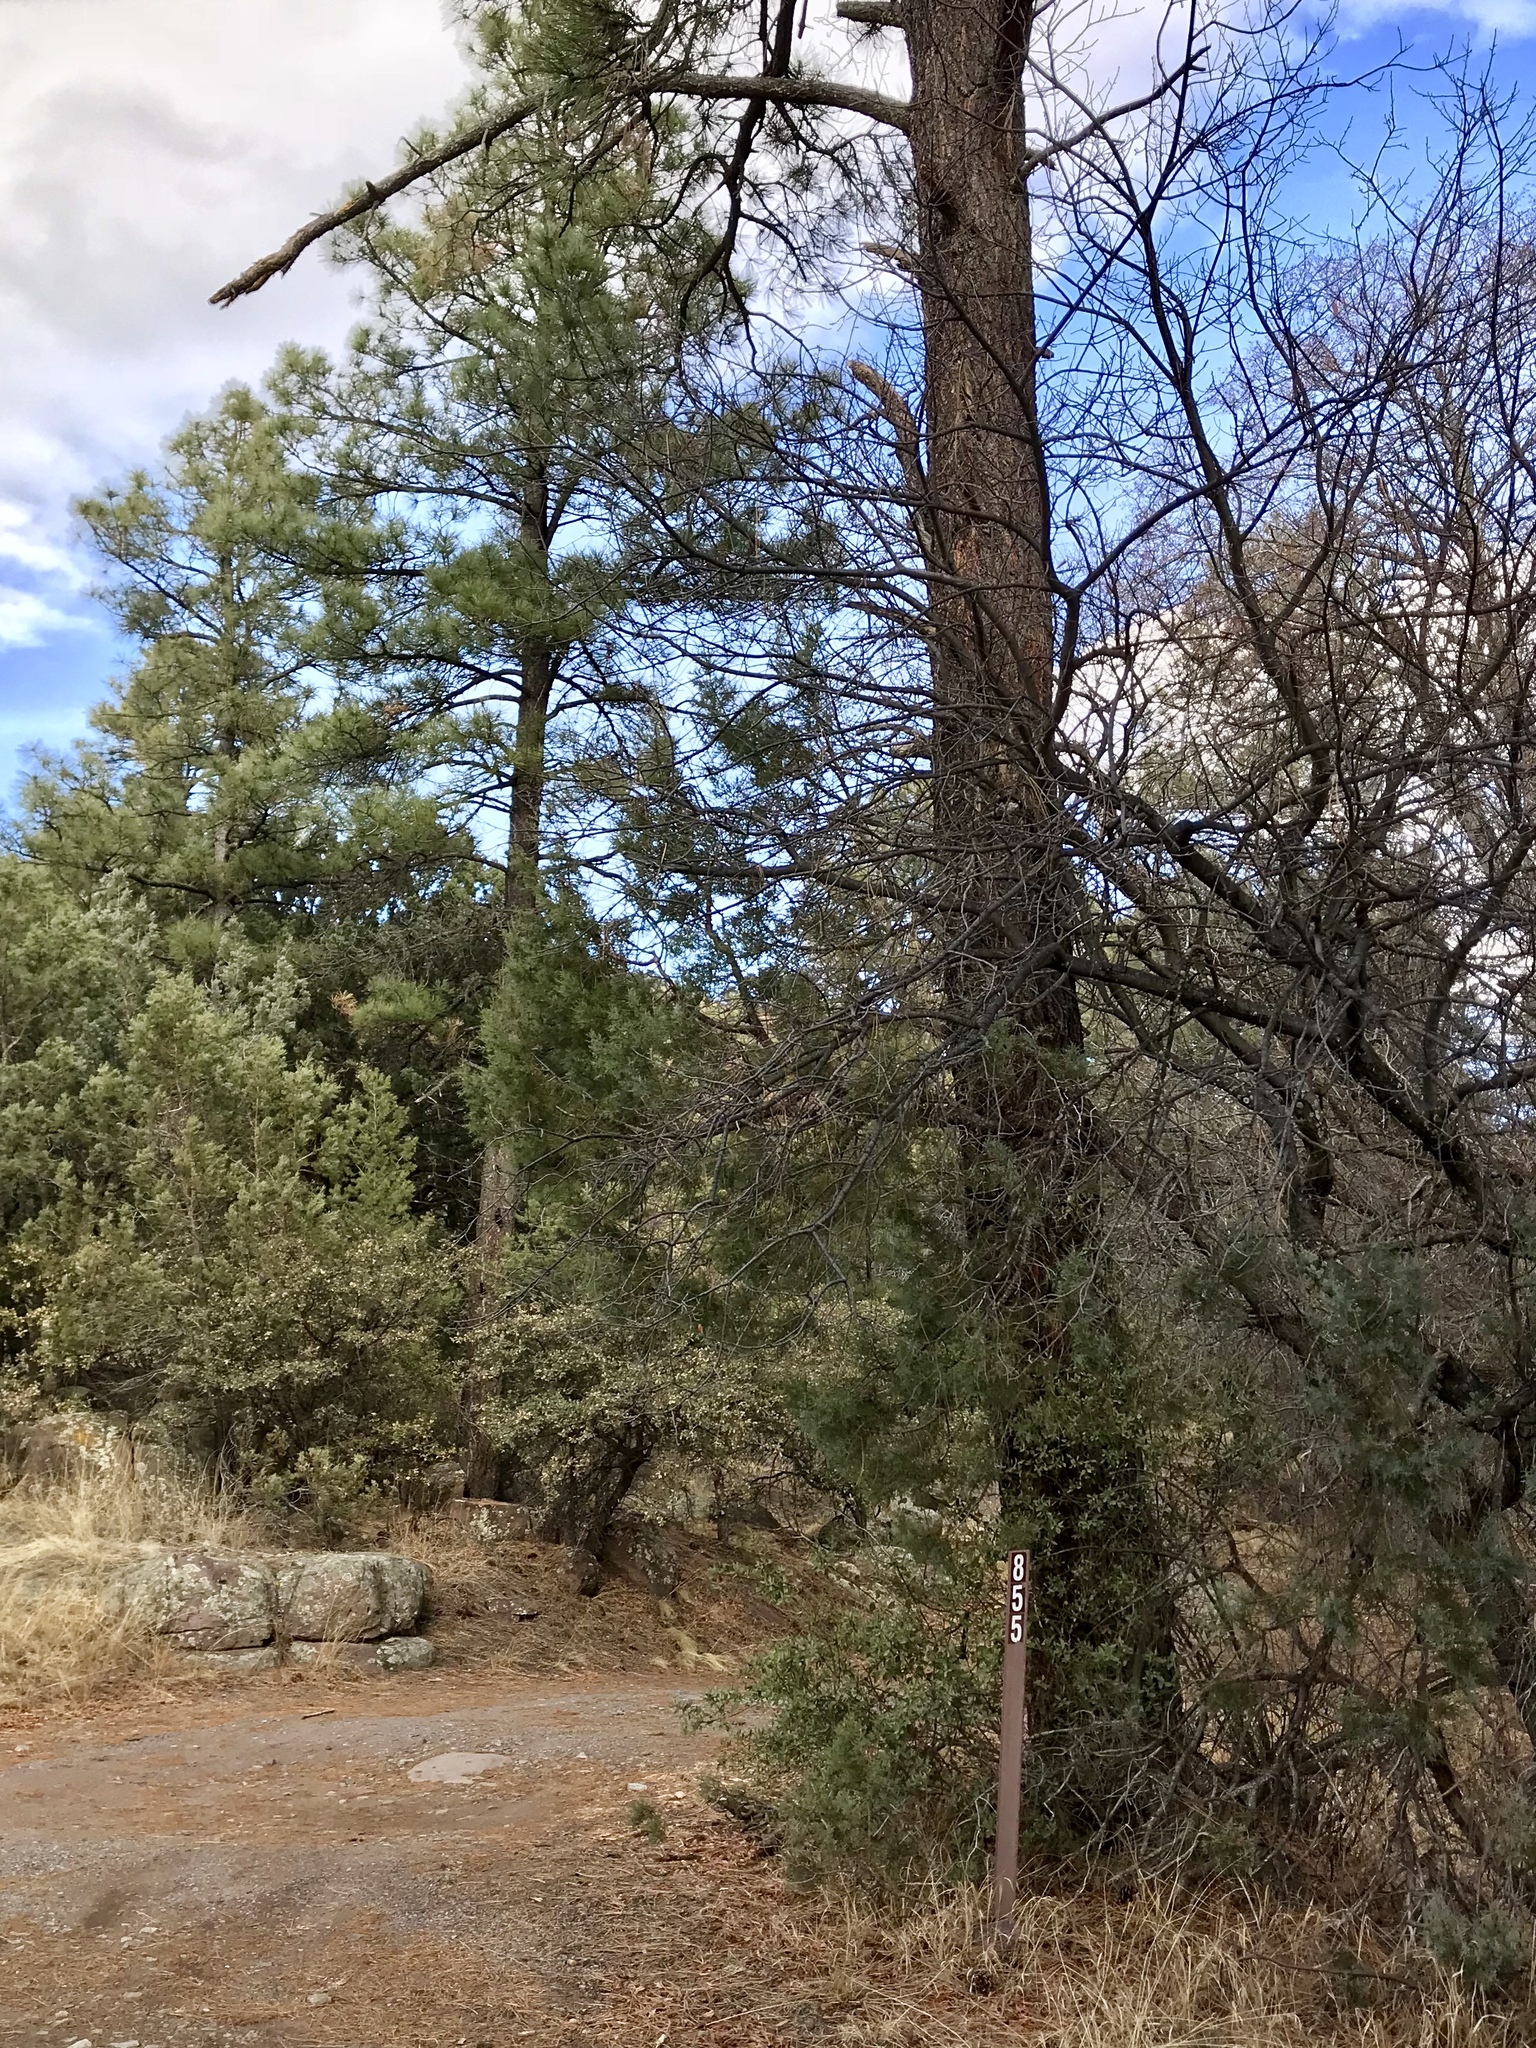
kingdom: Plantae
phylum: Tracheophyta
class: Pinopsida
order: Pinales
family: Pinaceae
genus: Pinus
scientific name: Pinus ponderosa
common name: Western yellow-pine
